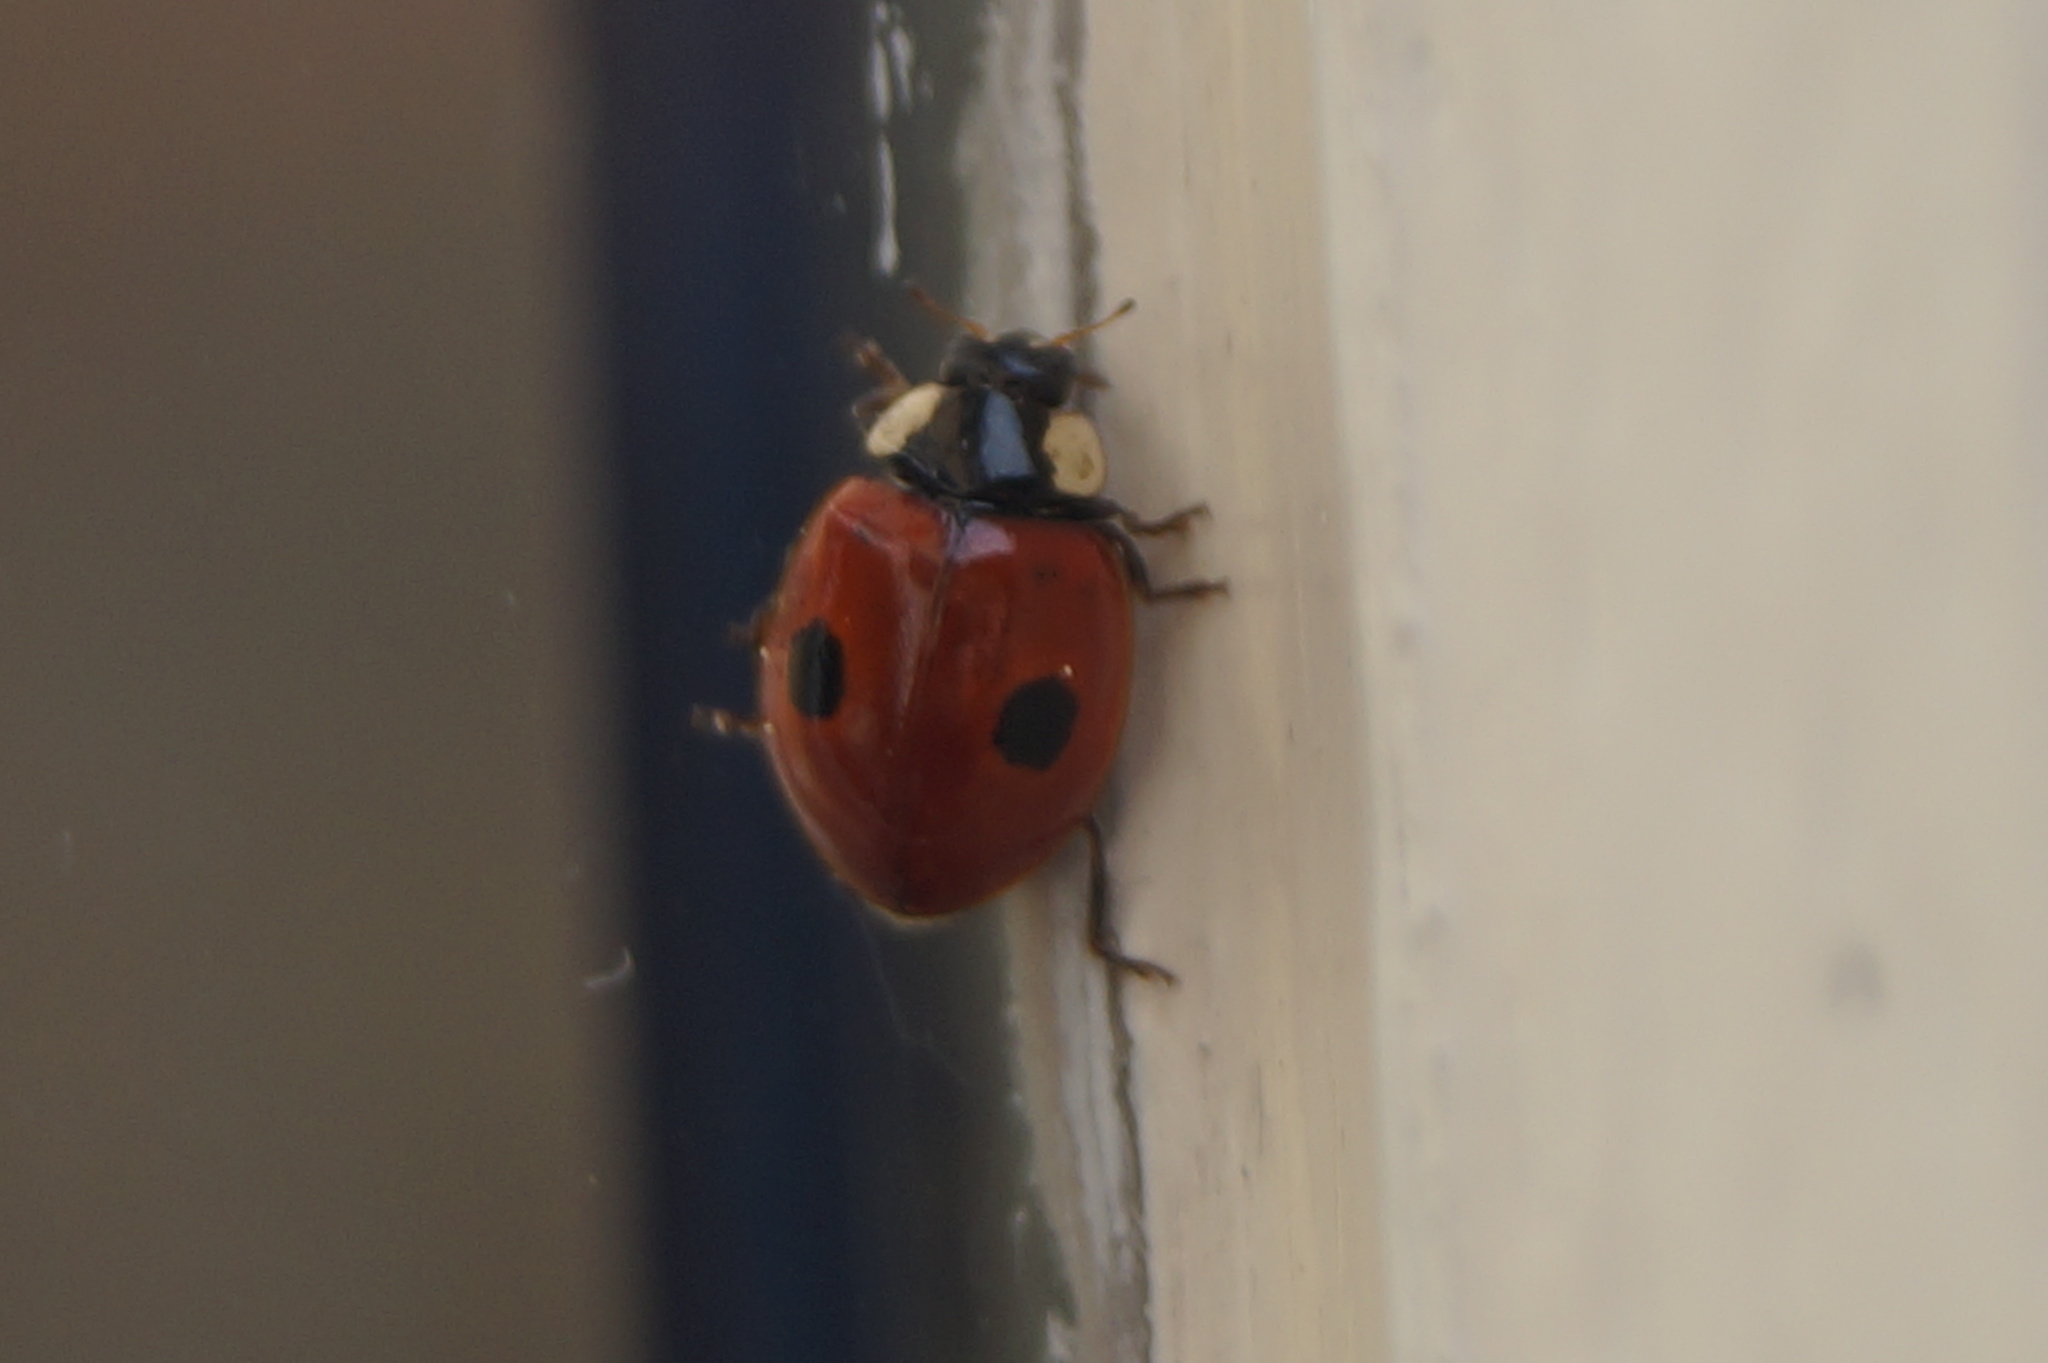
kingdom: Animalia
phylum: Arthropoda
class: Insecta
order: Coleoptera
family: Coccinellidae
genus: Adalia
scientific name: Adalia bipunctata
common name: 2-spot ladybird
